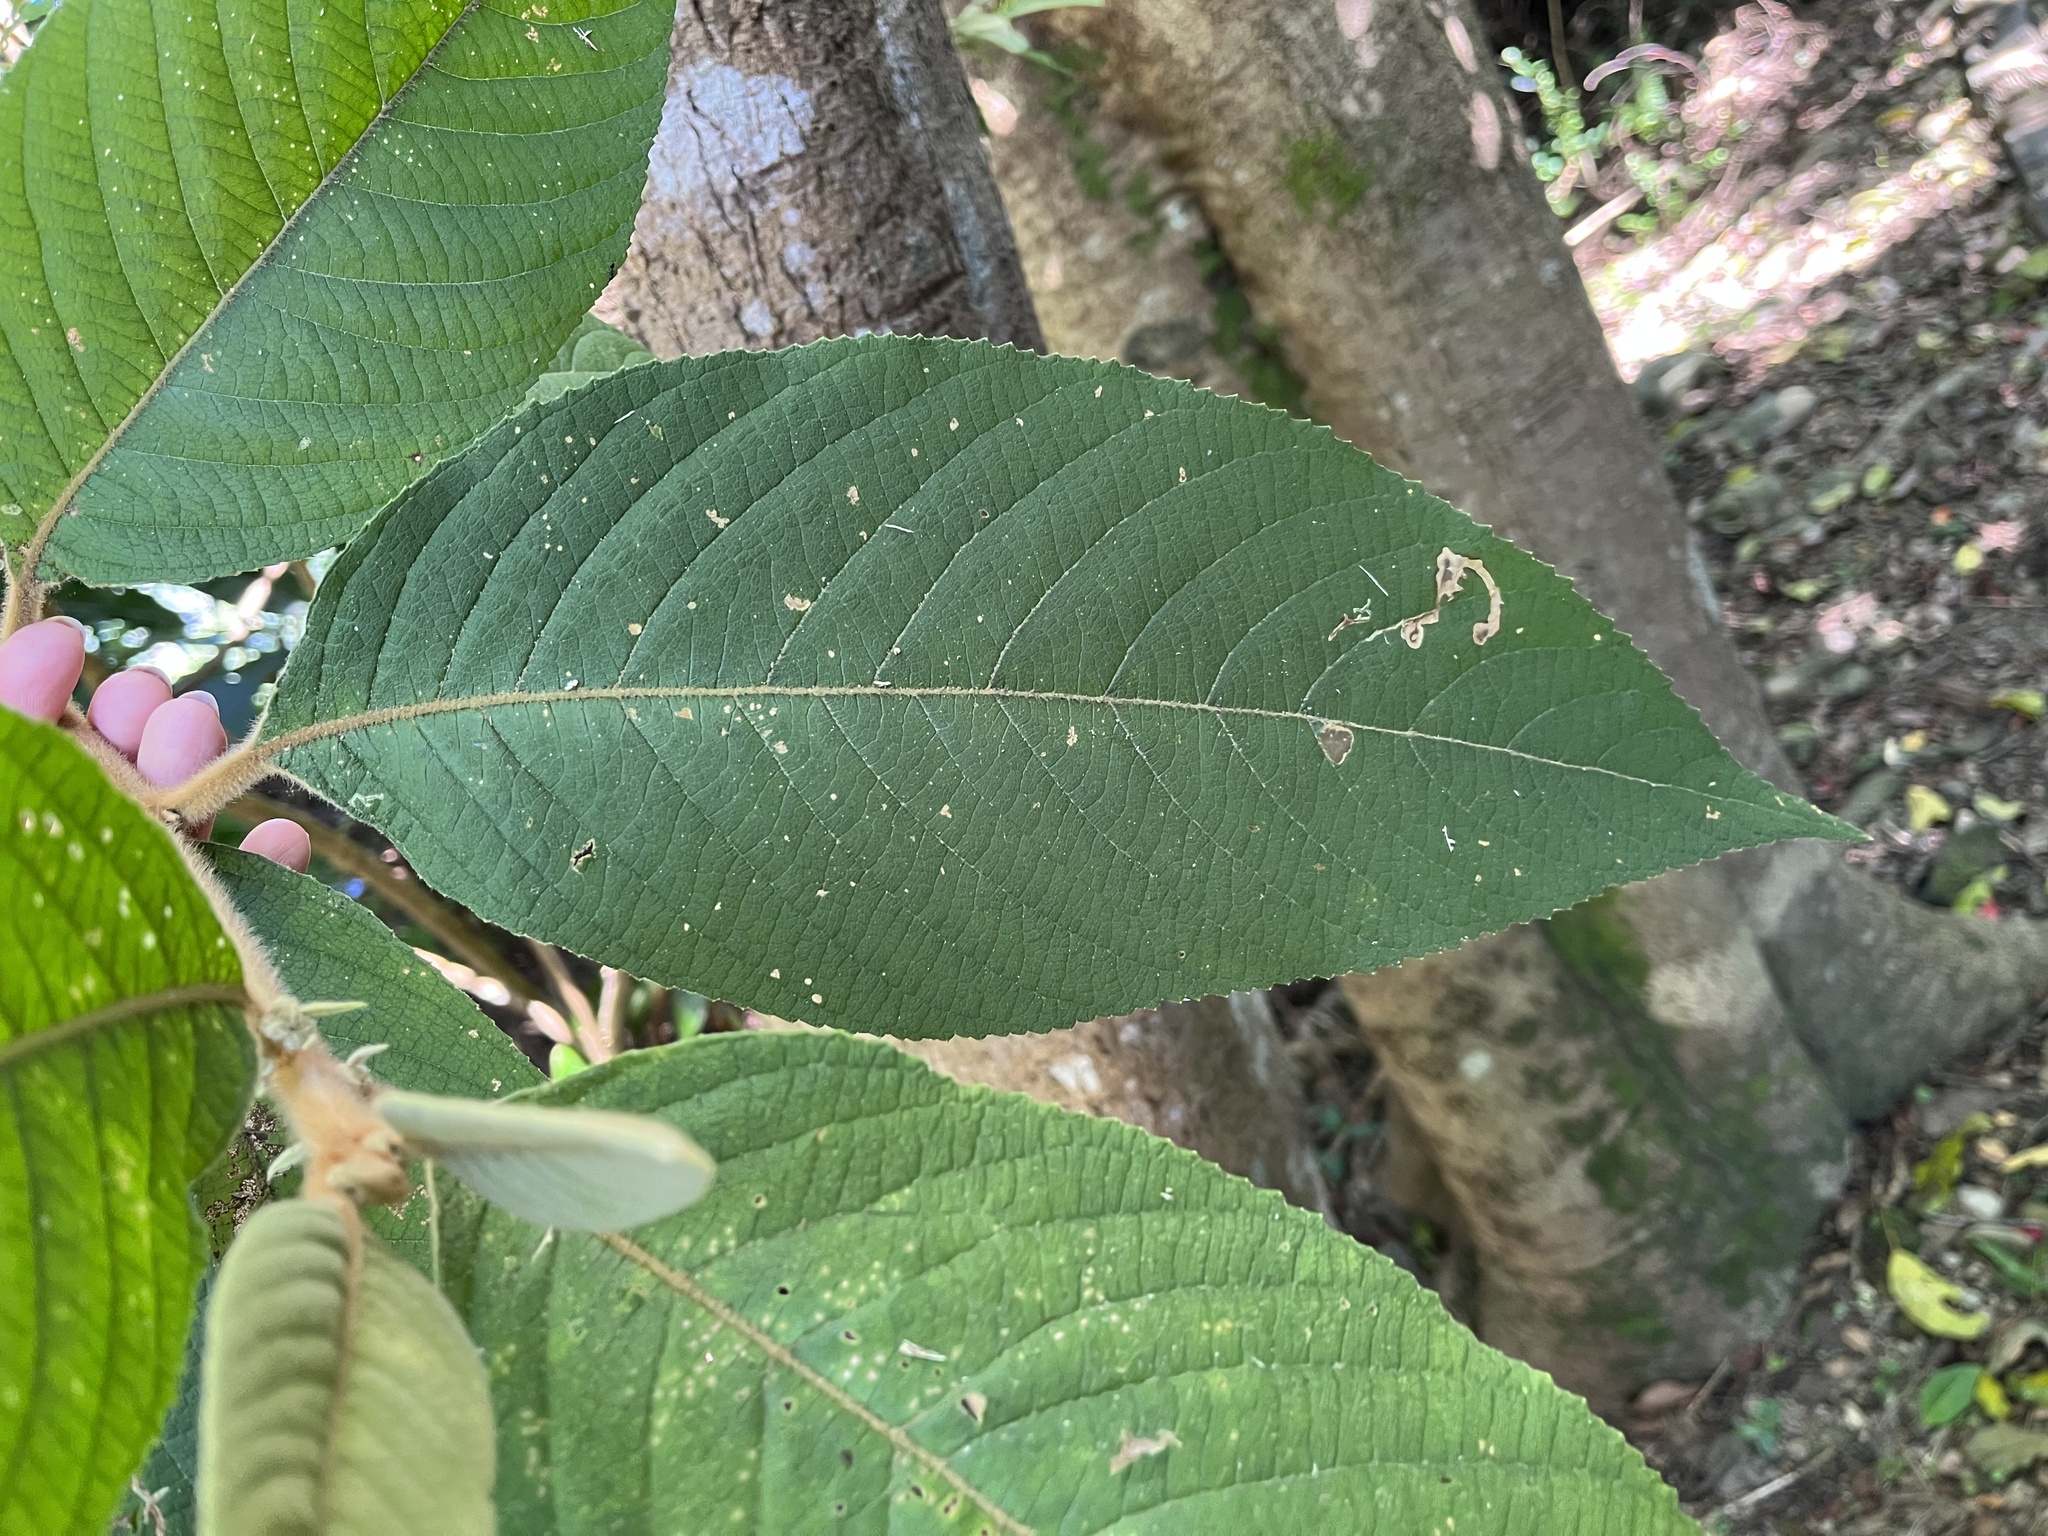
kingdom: Plantae
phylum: Tracheophyta
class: Magnoliopsida
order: Lamiales
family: Lamiaceae
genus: Callicarpa
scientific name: Callicarpa kochiana
